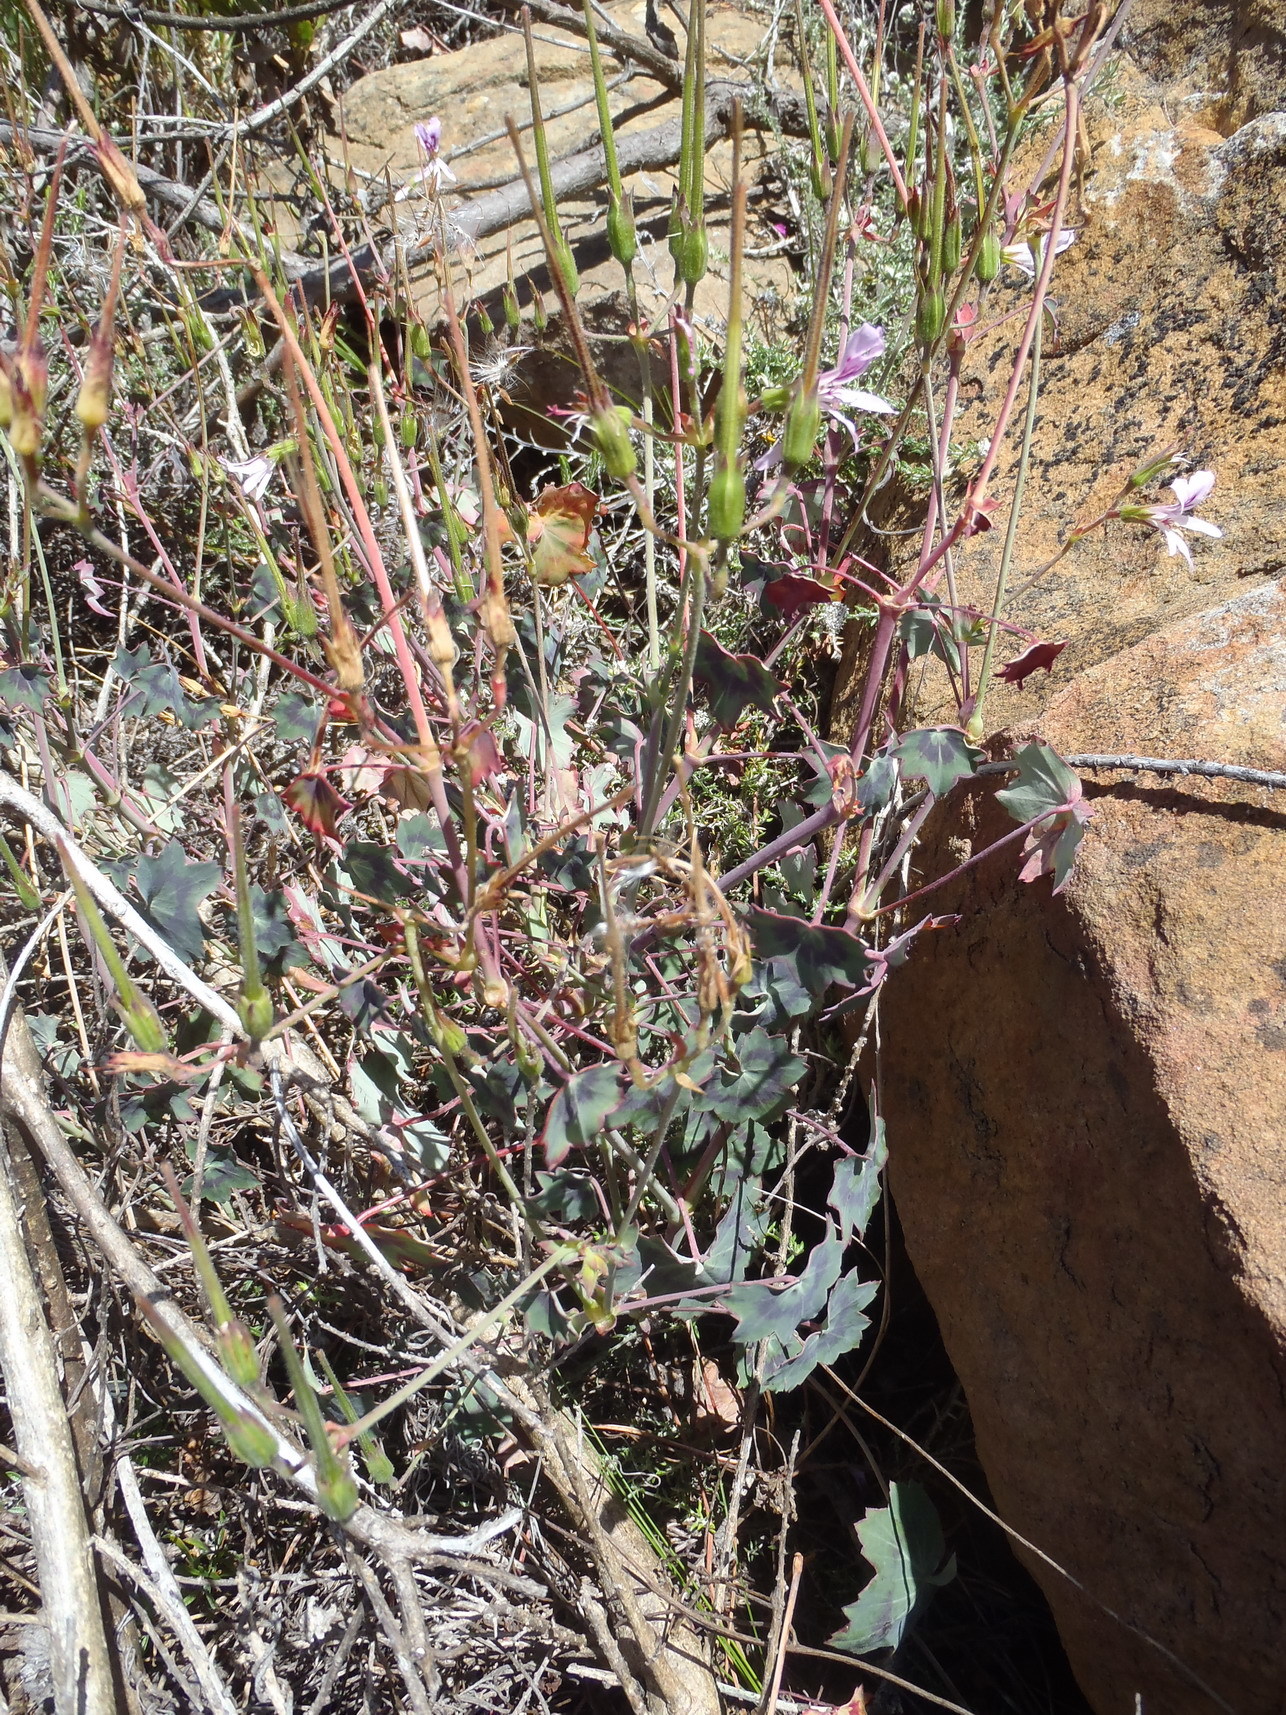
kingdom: Plantae
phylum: Tracheophyta
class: Magnoliopsida
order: Geraniales
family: Geraniaceae
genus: Pelargonium
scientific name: Pelargonium tabulare
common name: Table mountain pelargonium
